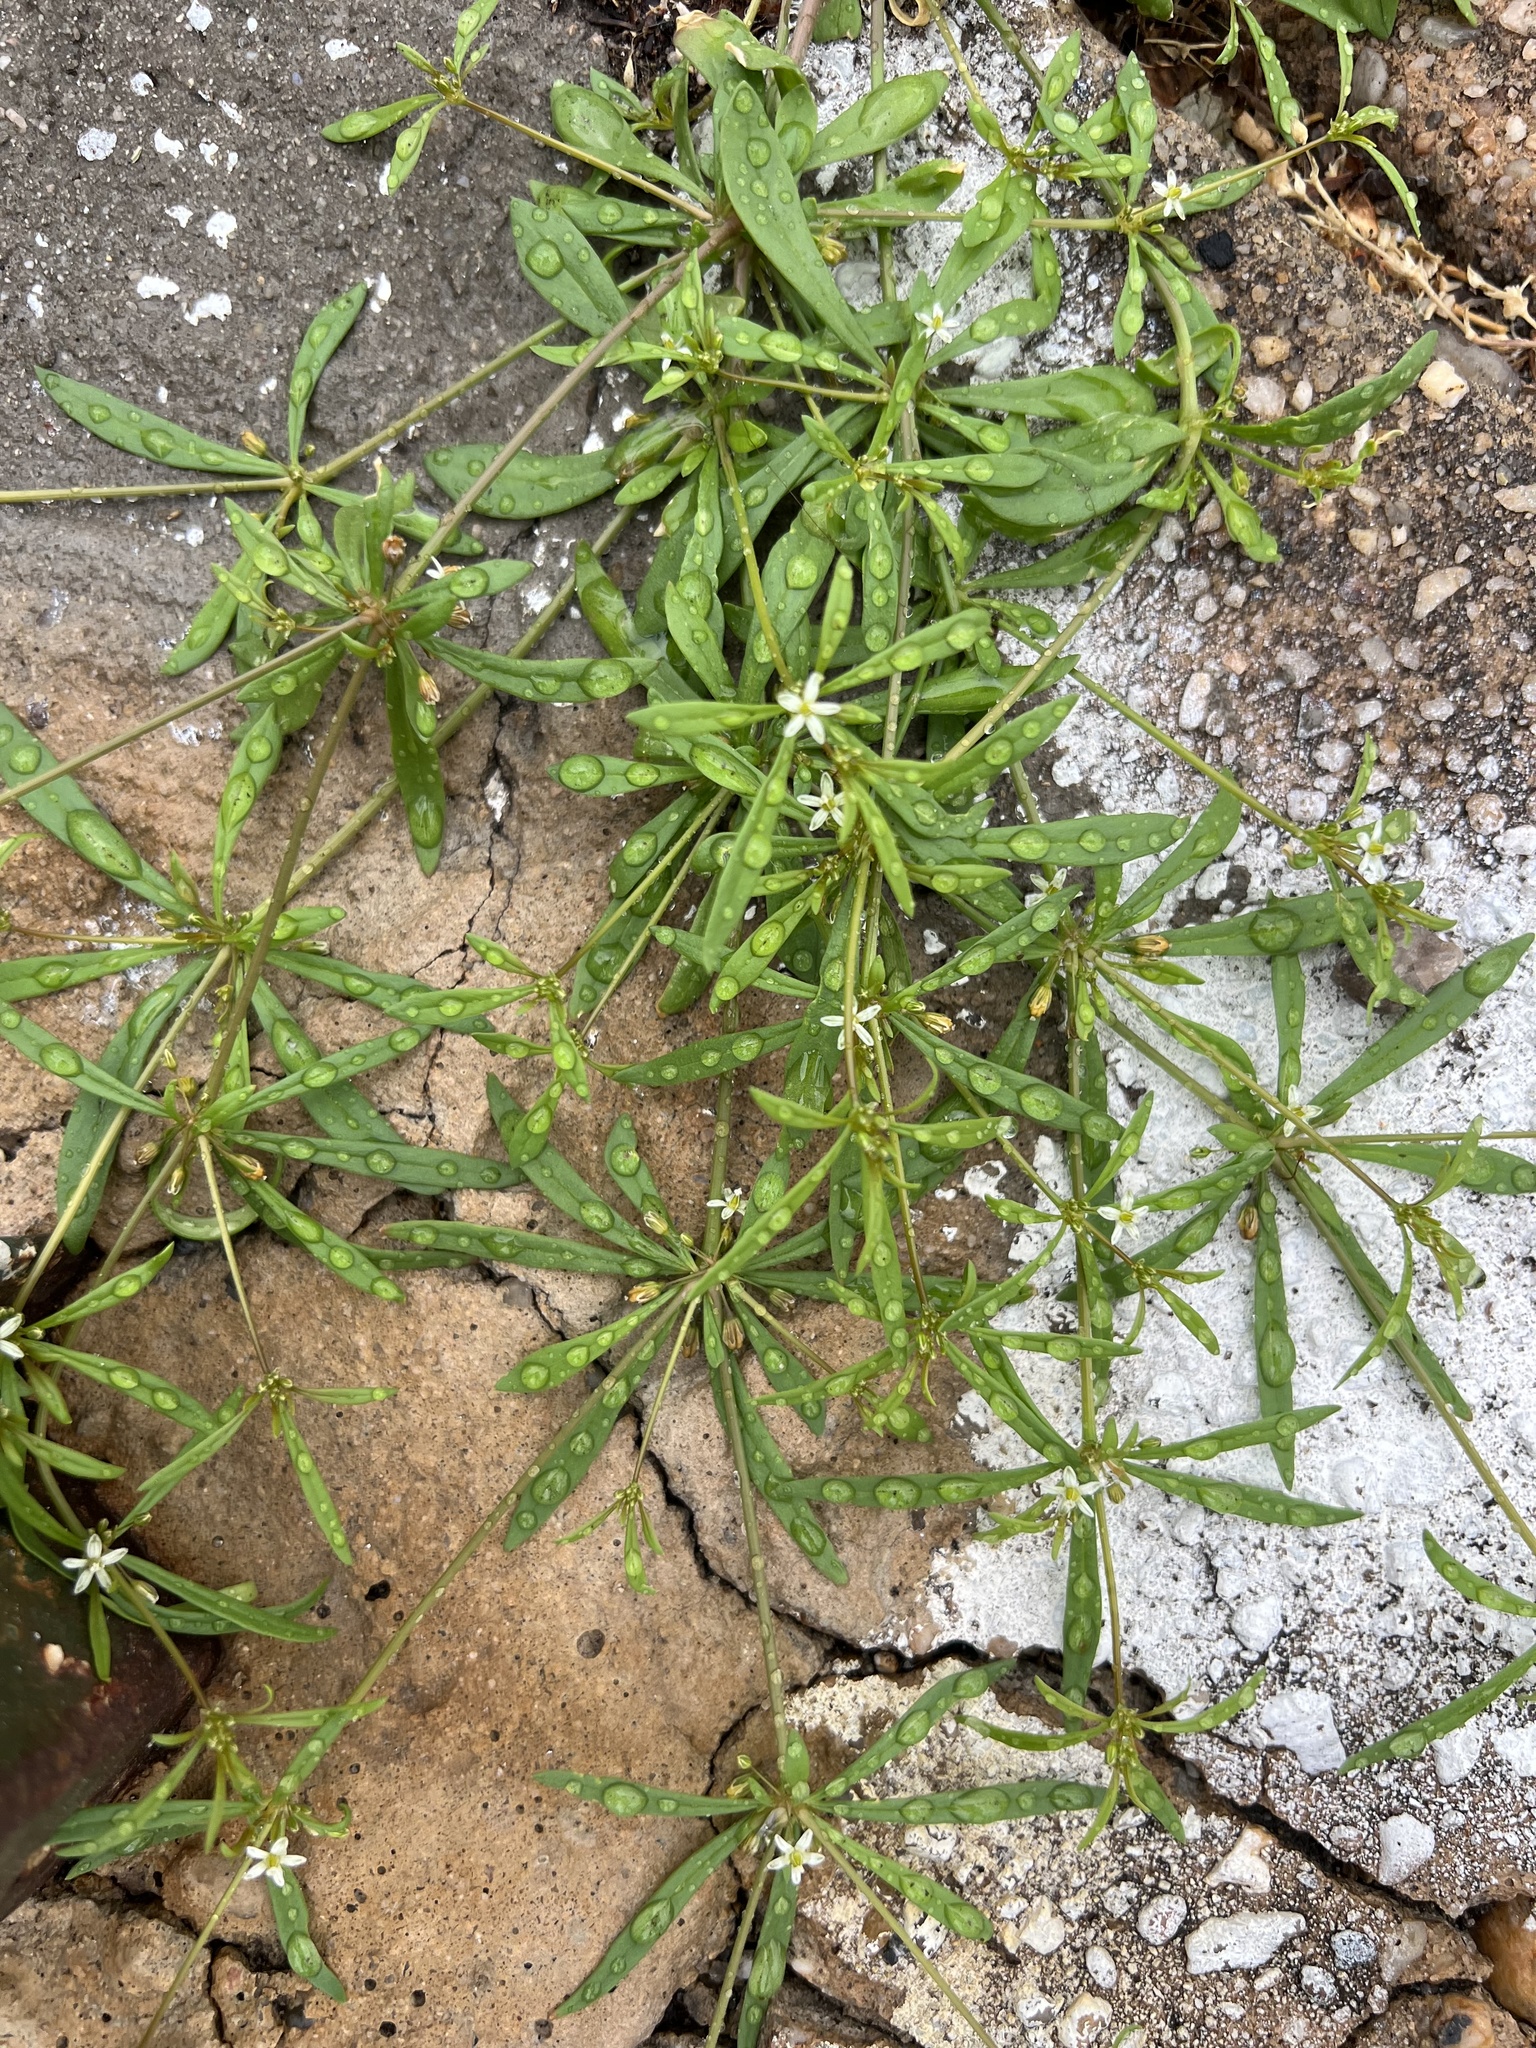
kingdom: Plantae
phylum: Tracheophyta
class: Magnoliopsida
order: Caryophyllales
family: Molluginaceae
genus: Mollugo
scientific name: Mollugo verticillata
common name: Green carpetweed
